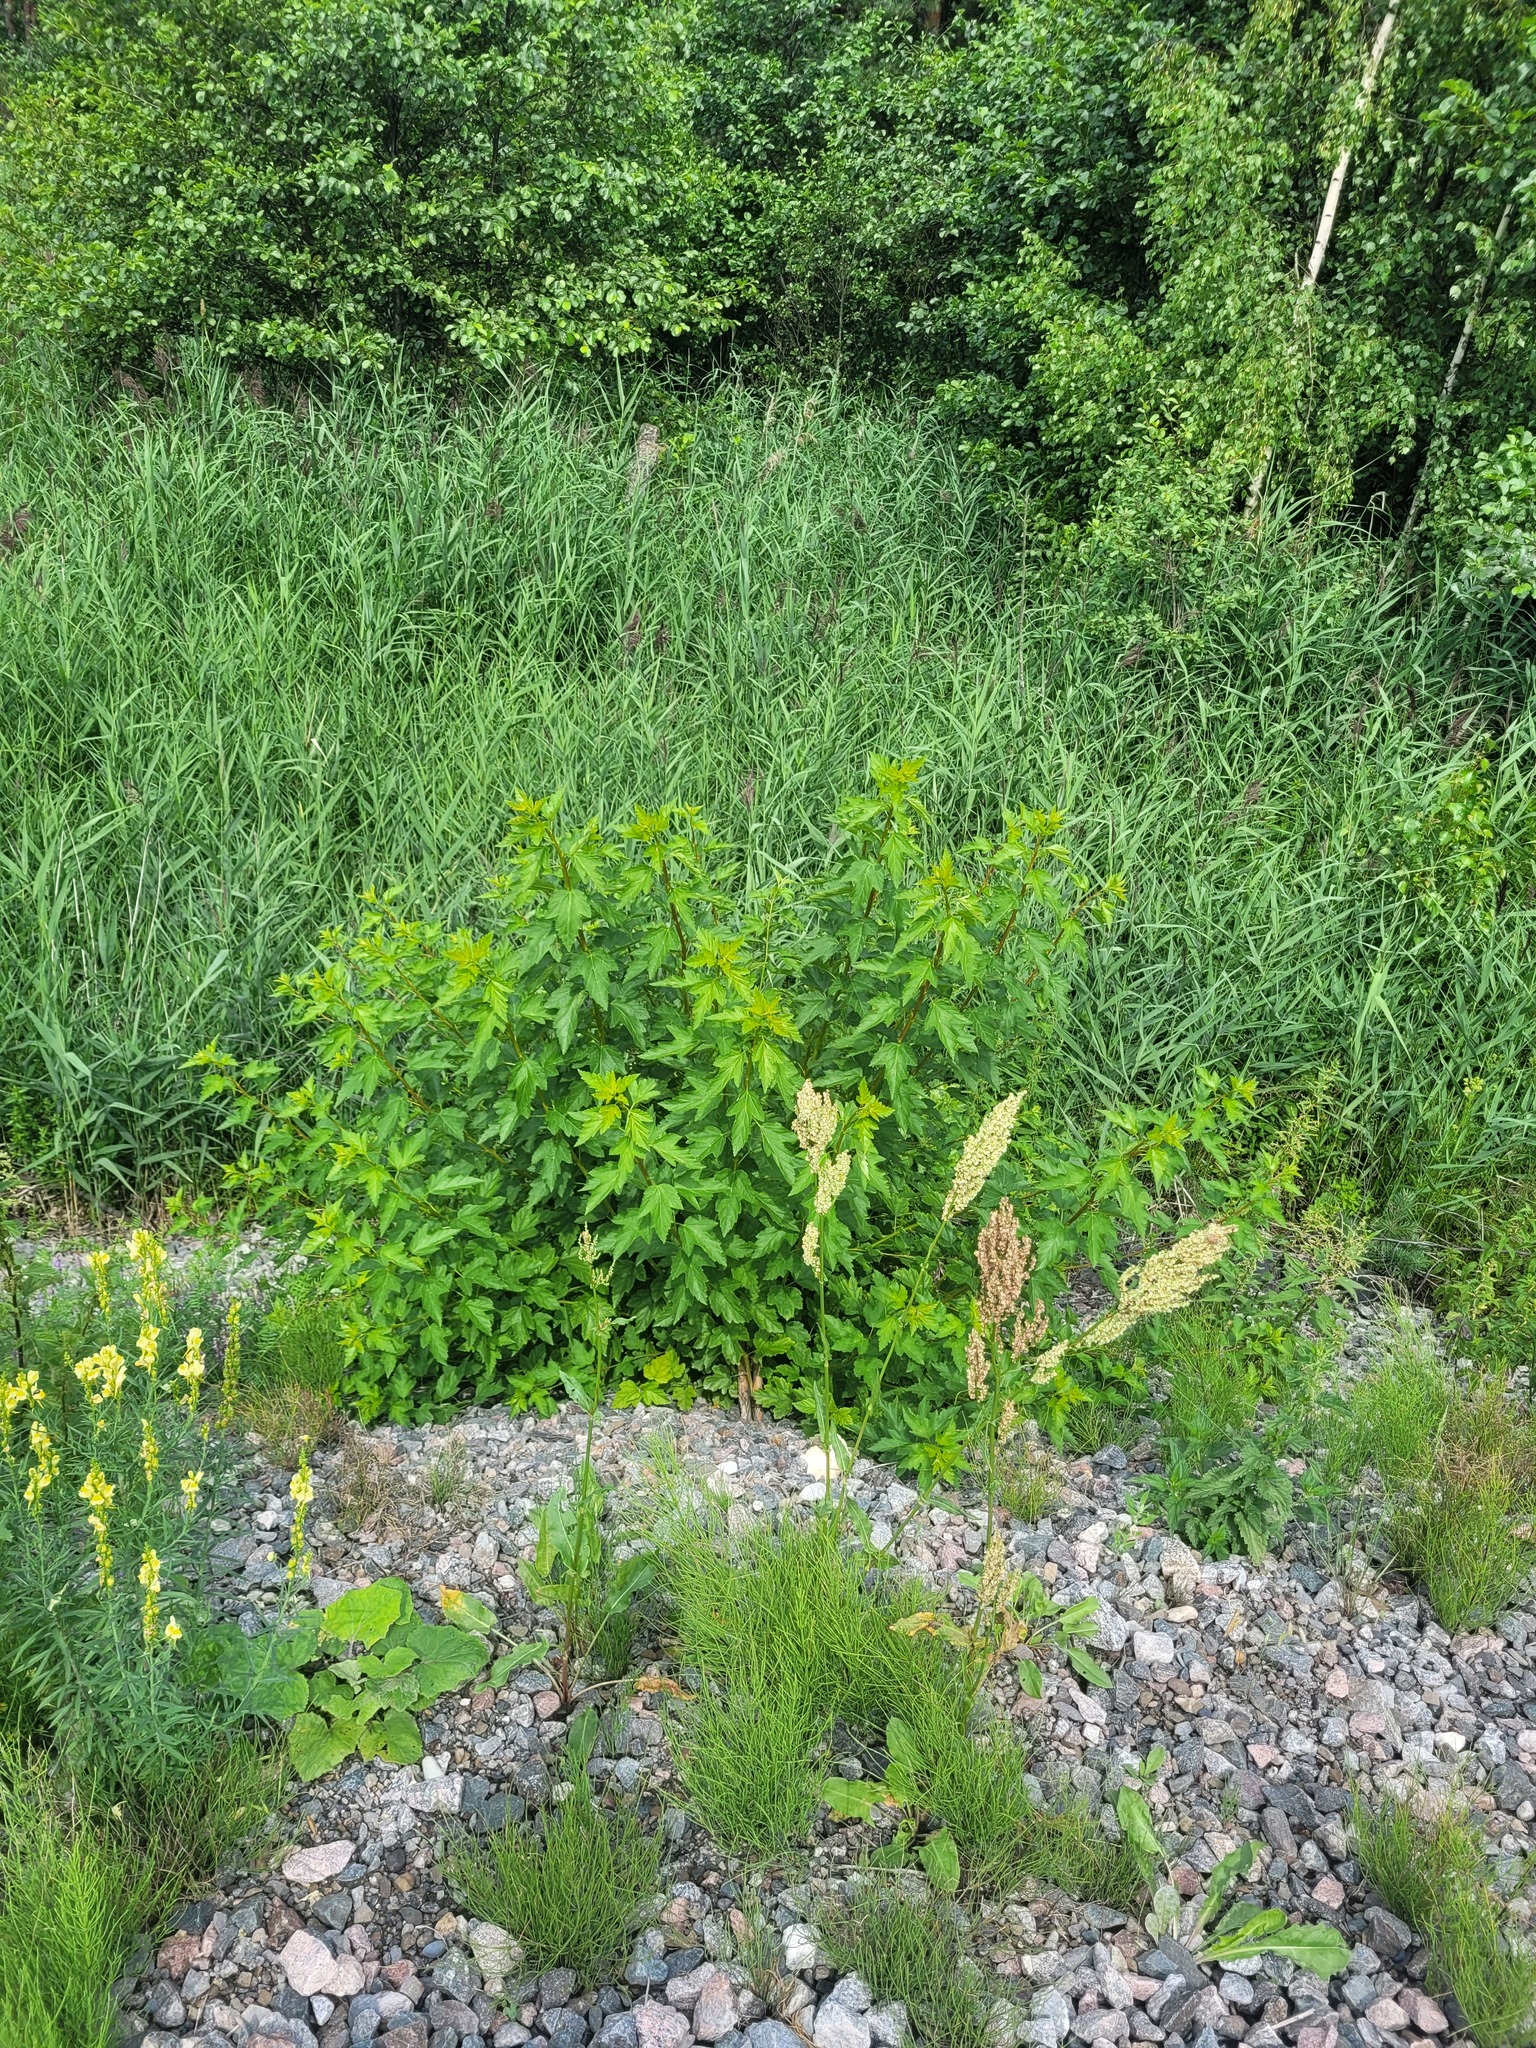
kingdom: Plantae
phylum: Tracheophyta
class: Magnoliopsida
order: Rosales
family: Rosaceae
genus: Physocarpus
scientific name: Physocarpus opulifolius
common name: Ninebark
